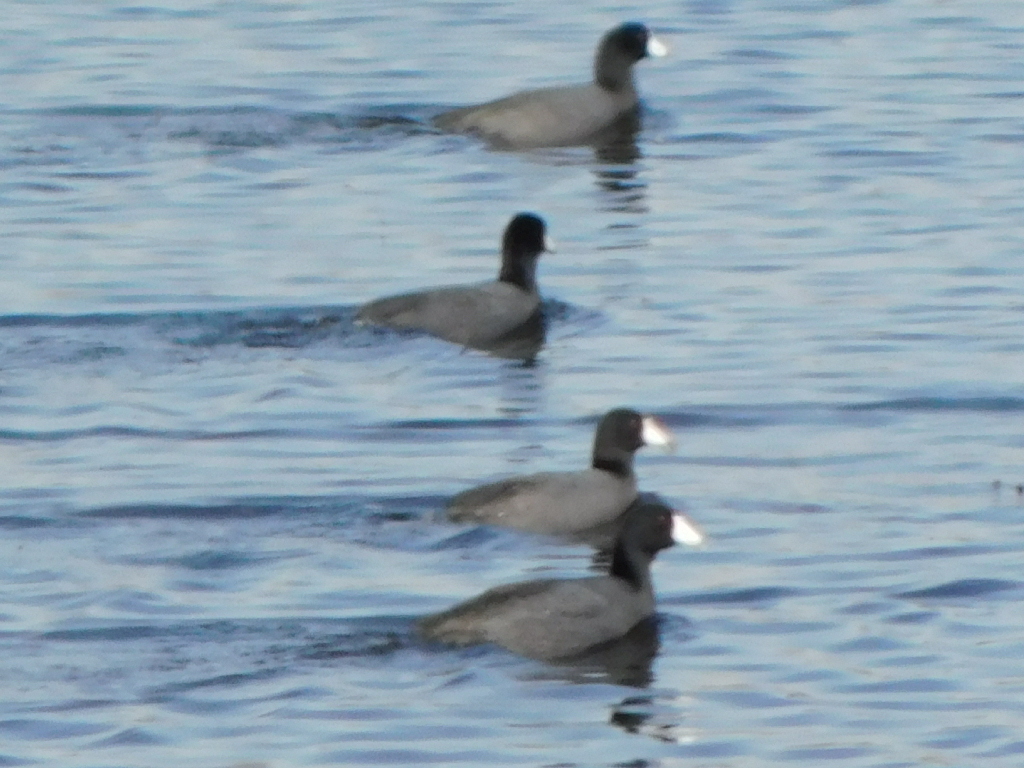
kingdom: Animalia
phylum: Chordata
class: Aves
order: Gruiformes
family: Rallidae
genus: Fulica
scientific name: Fulica americana
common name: American coot
